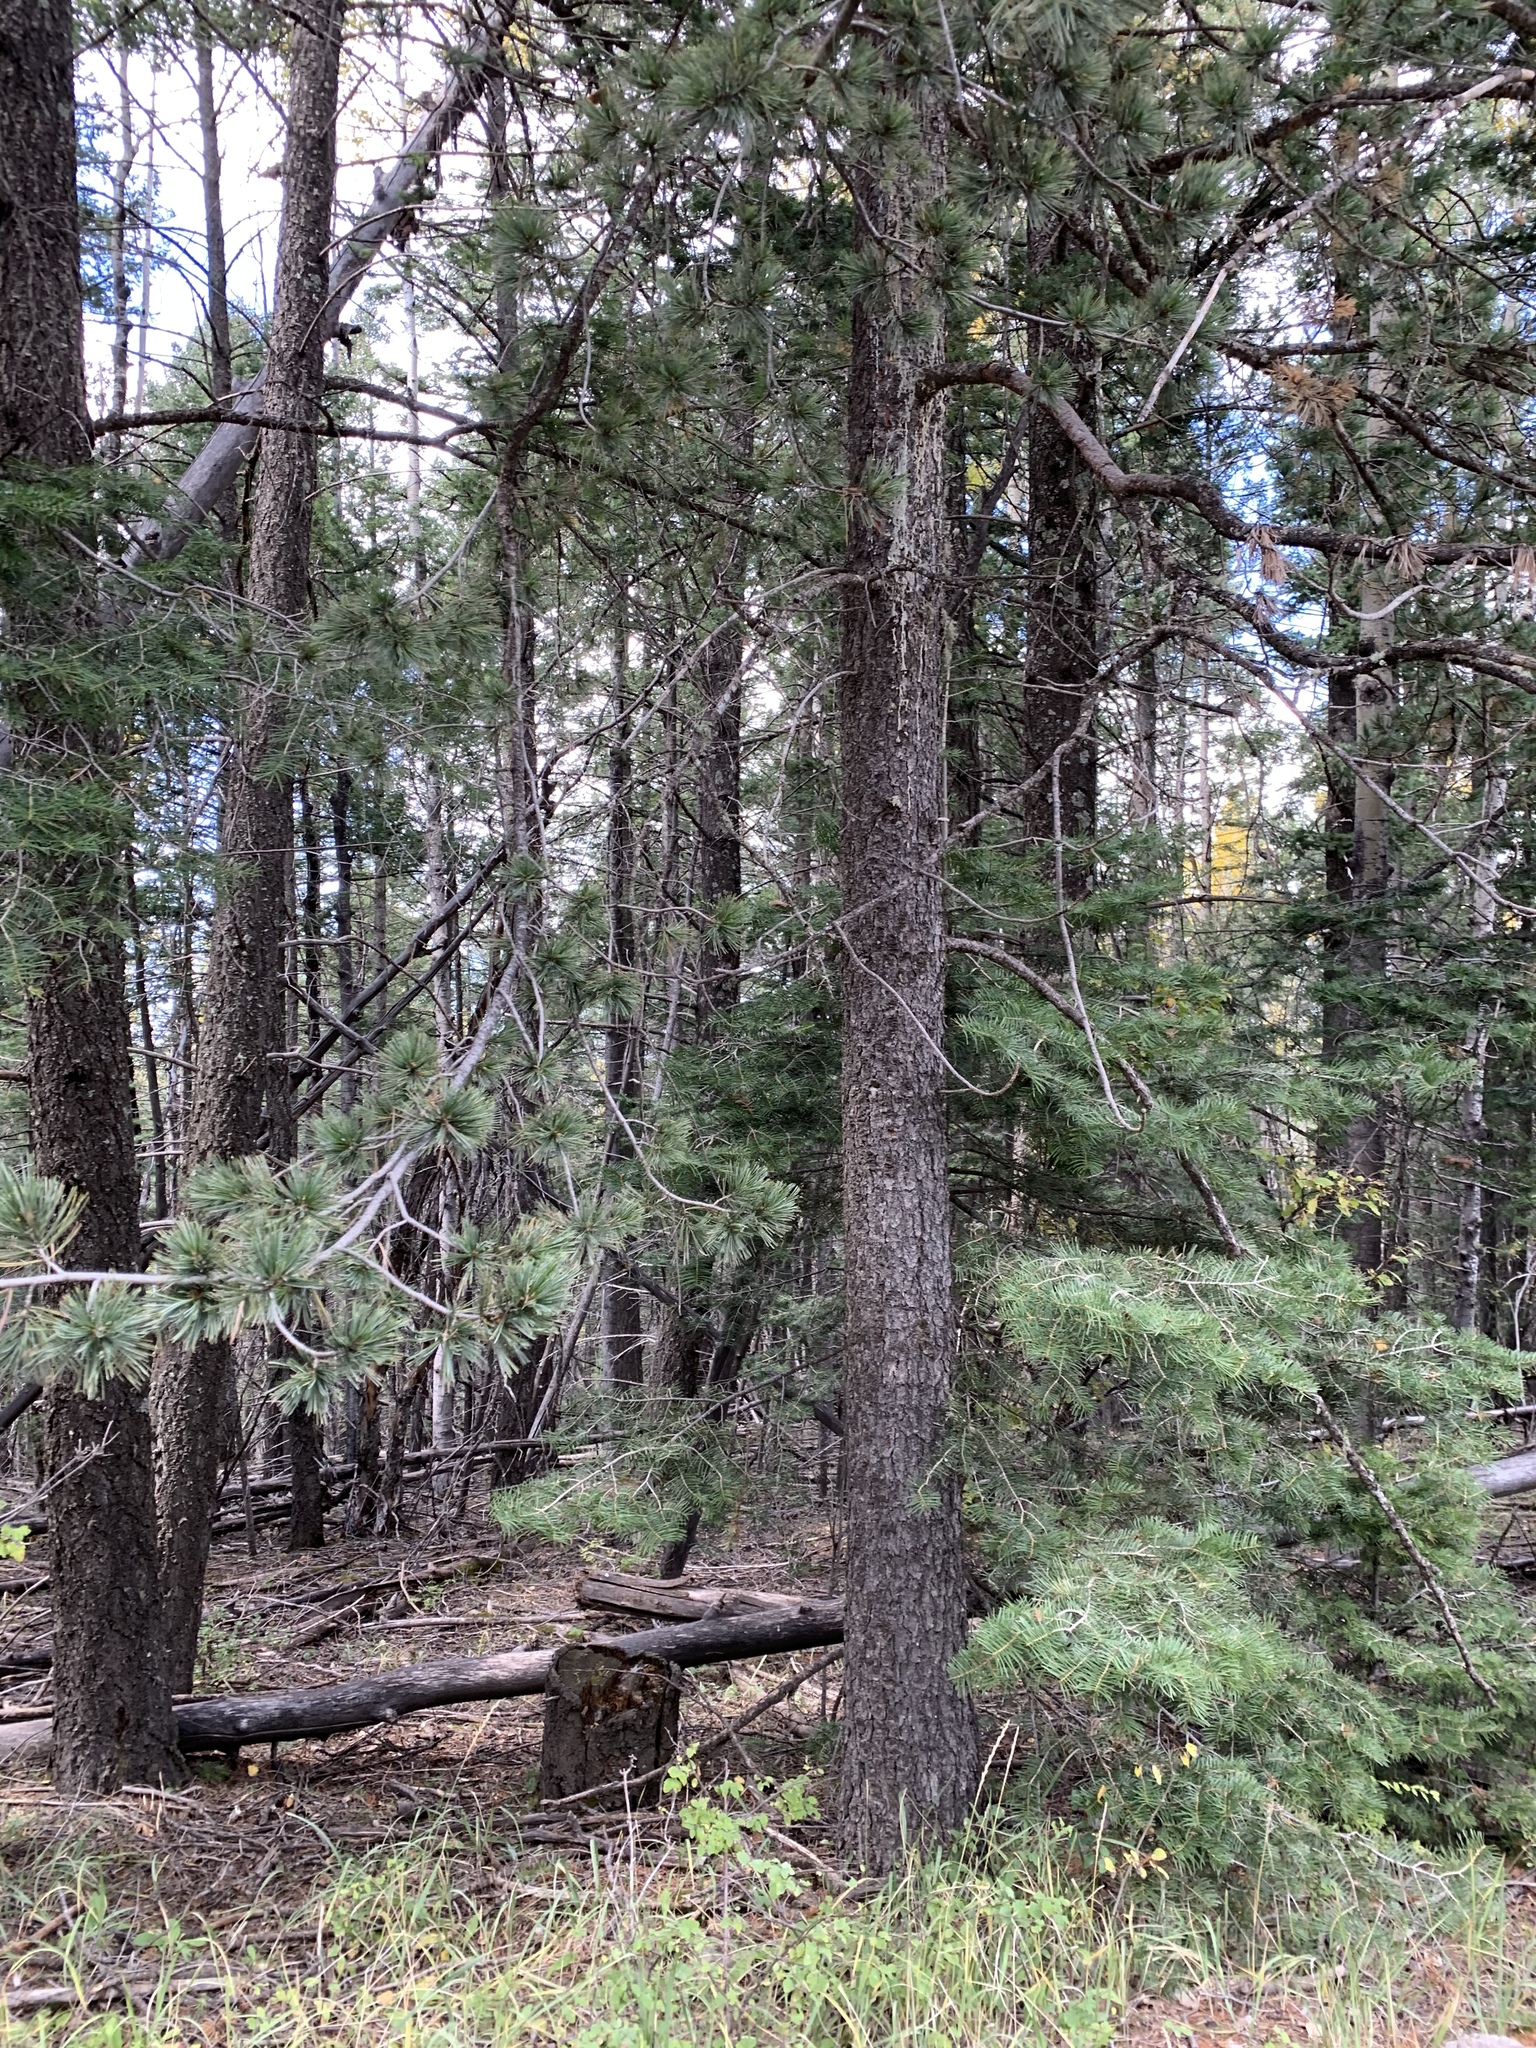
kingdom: Plantae
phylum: Tracheophyta
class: Pinopsida
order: Pinales
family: Pinaceae
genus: Pinus
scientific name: Pinus strobiformis
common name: Southwestern white pine
